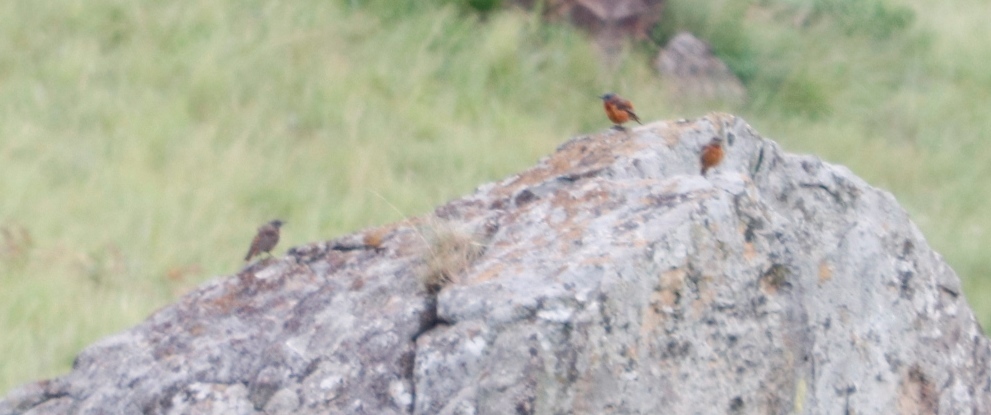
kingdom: Animalia
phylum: Chordata
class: Aves
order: Passeriformes
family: Muscicapidae
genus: Monticola
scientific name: Monticola rupestris
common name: Cape rock thrush
